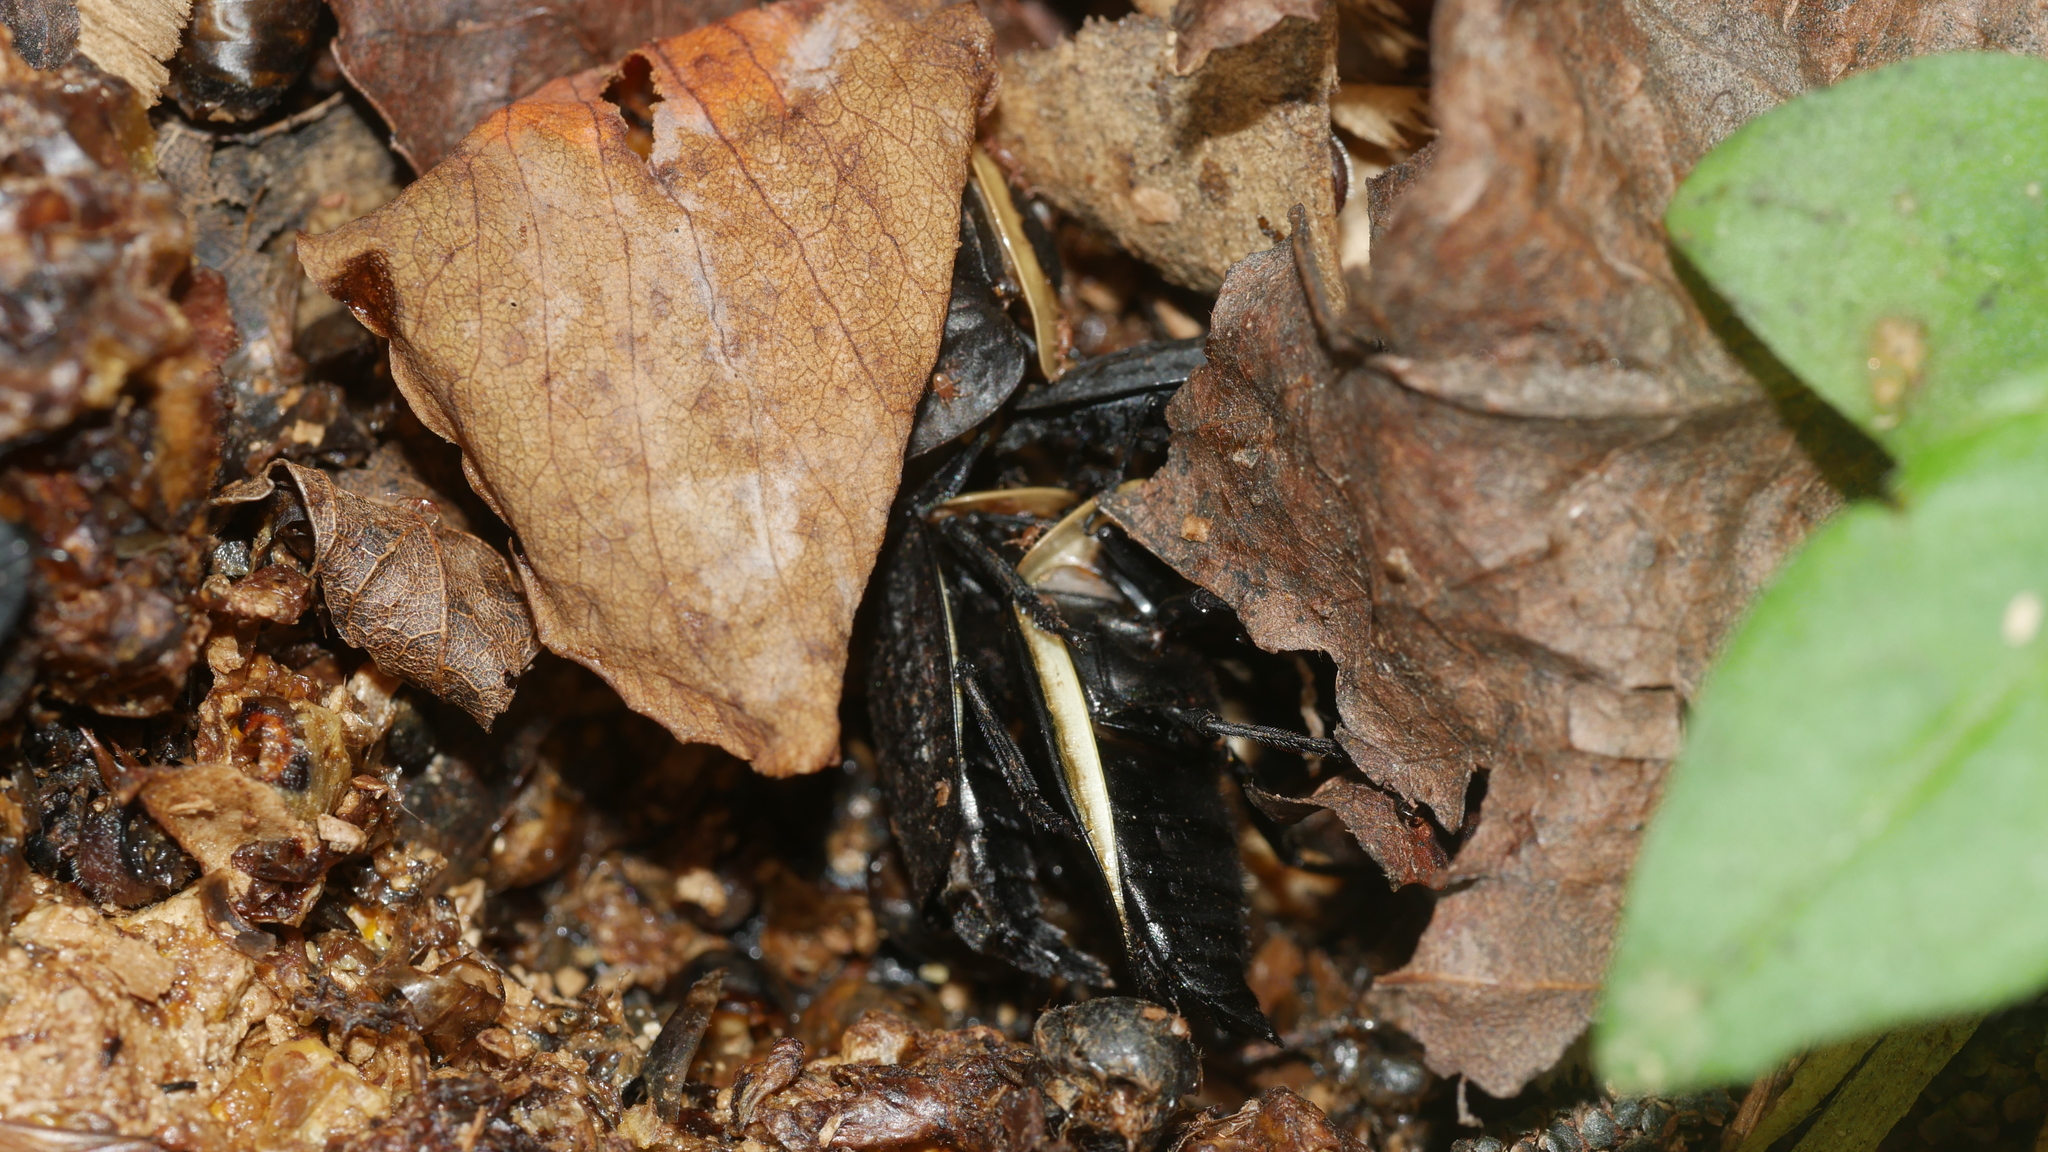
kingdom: Animalia
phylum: Arthropoda
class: Insecta
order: Coleoptera
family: Staphylinidae
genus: Necrophila
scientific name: Necrophila americana
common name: American carrion beetle
